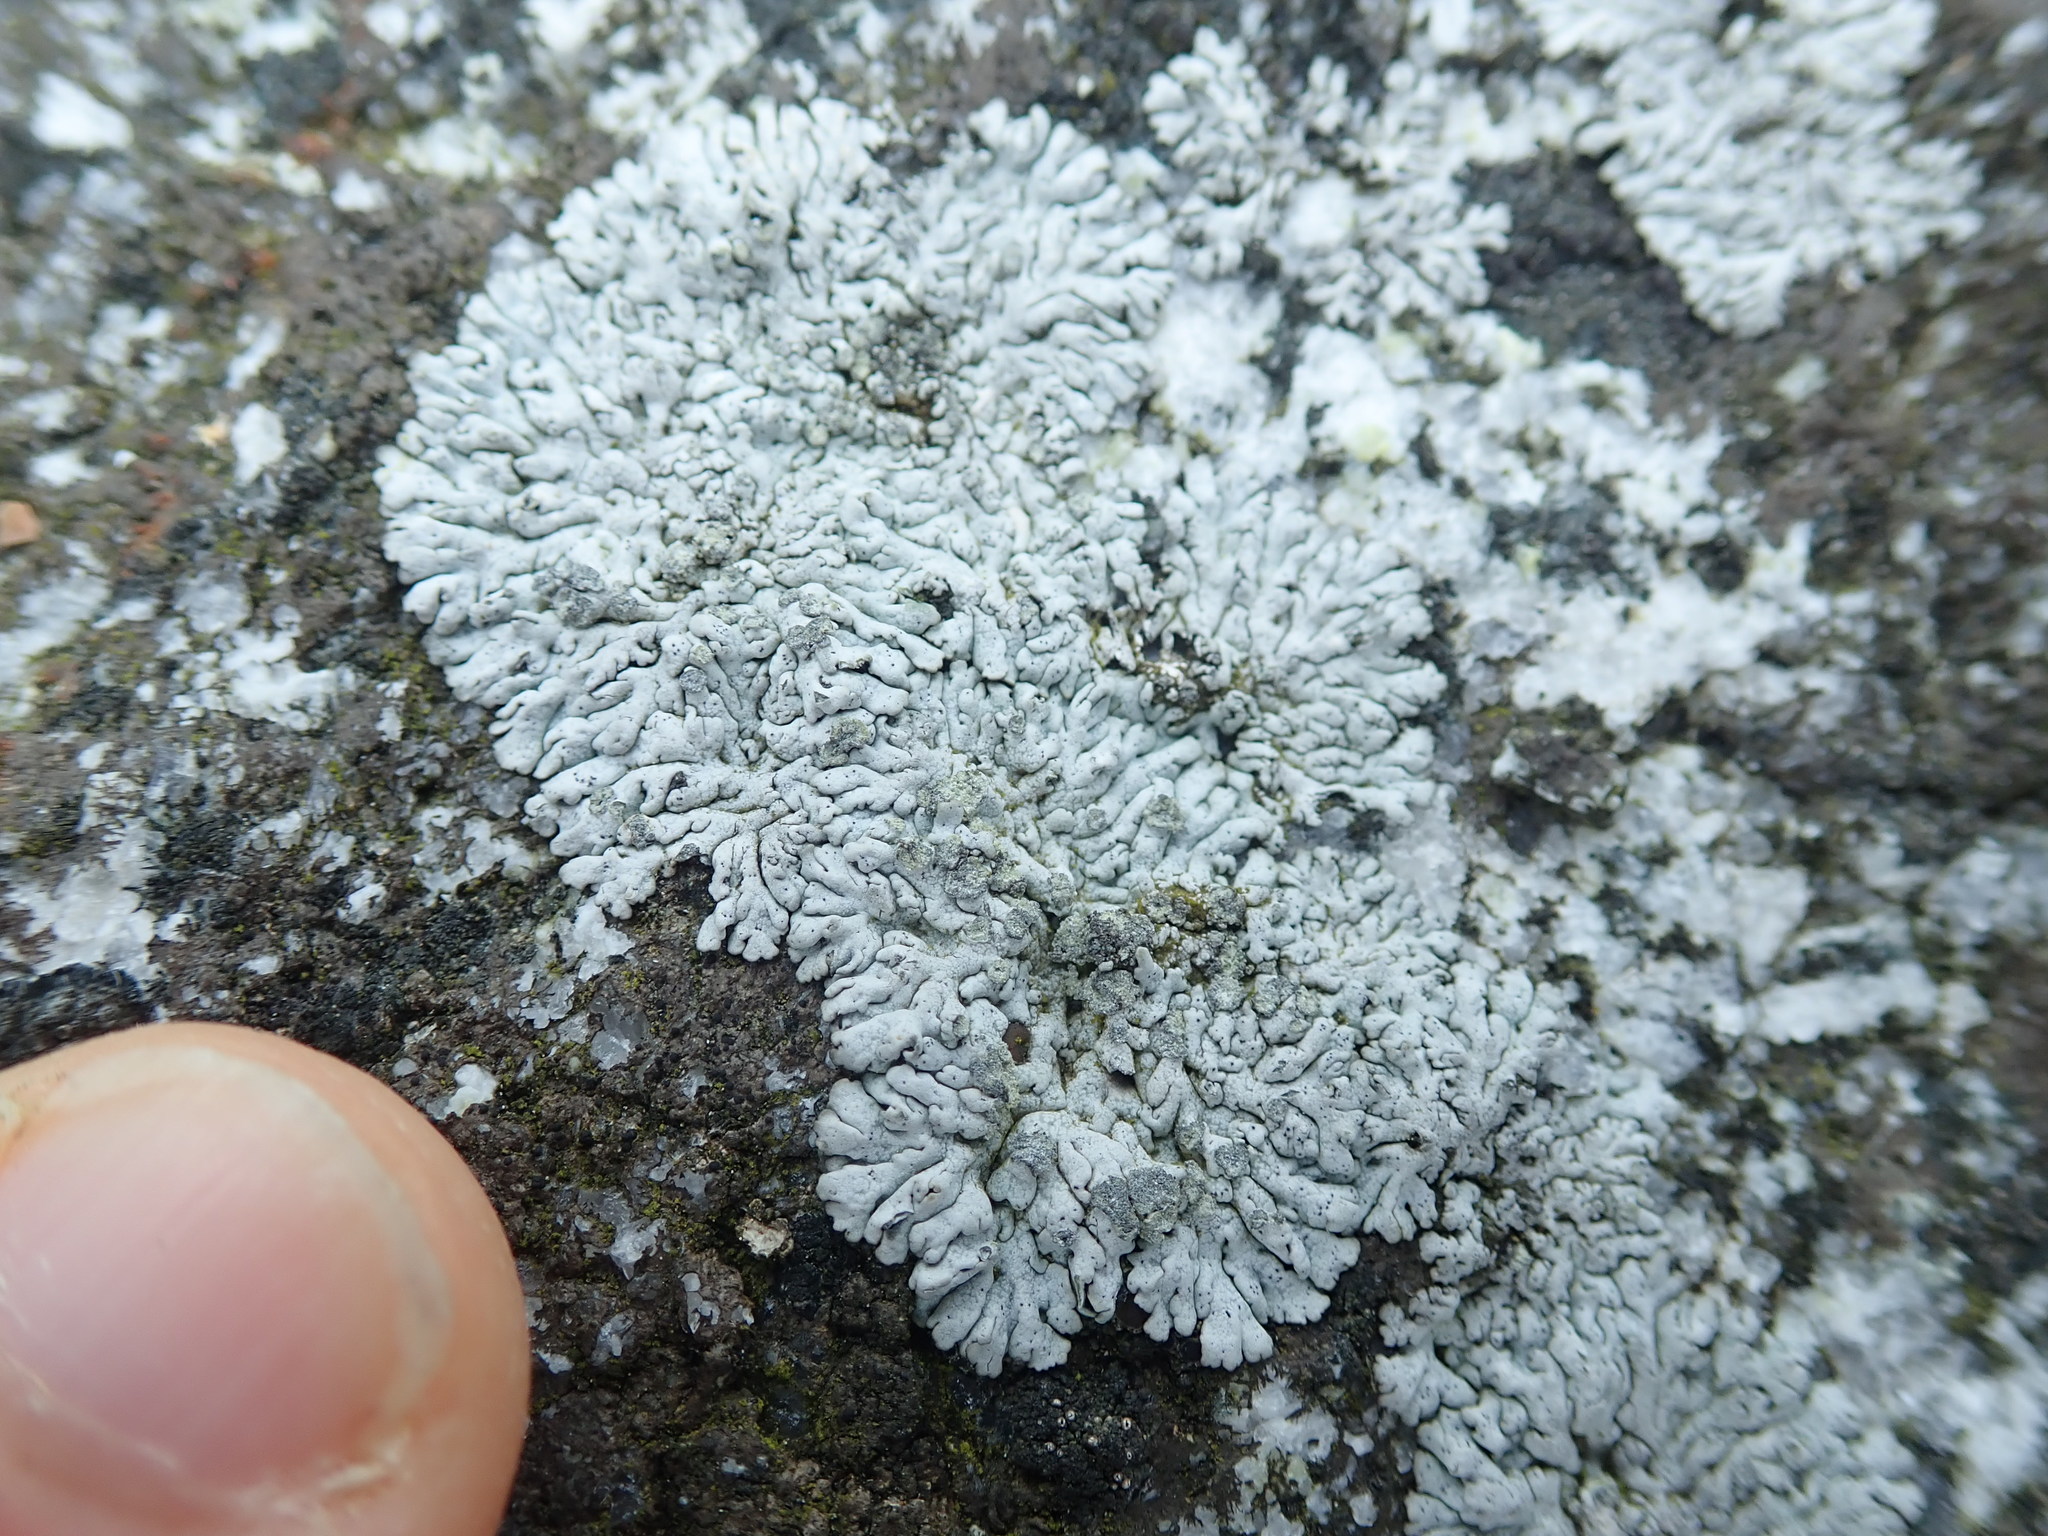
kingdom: Fungi
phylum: Ascomycota
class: Lecanoromycetes
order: Caliciales
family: Physciaceae
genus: Physcia
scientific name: Physcia caesia
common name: Blue-gray rosette lichen
